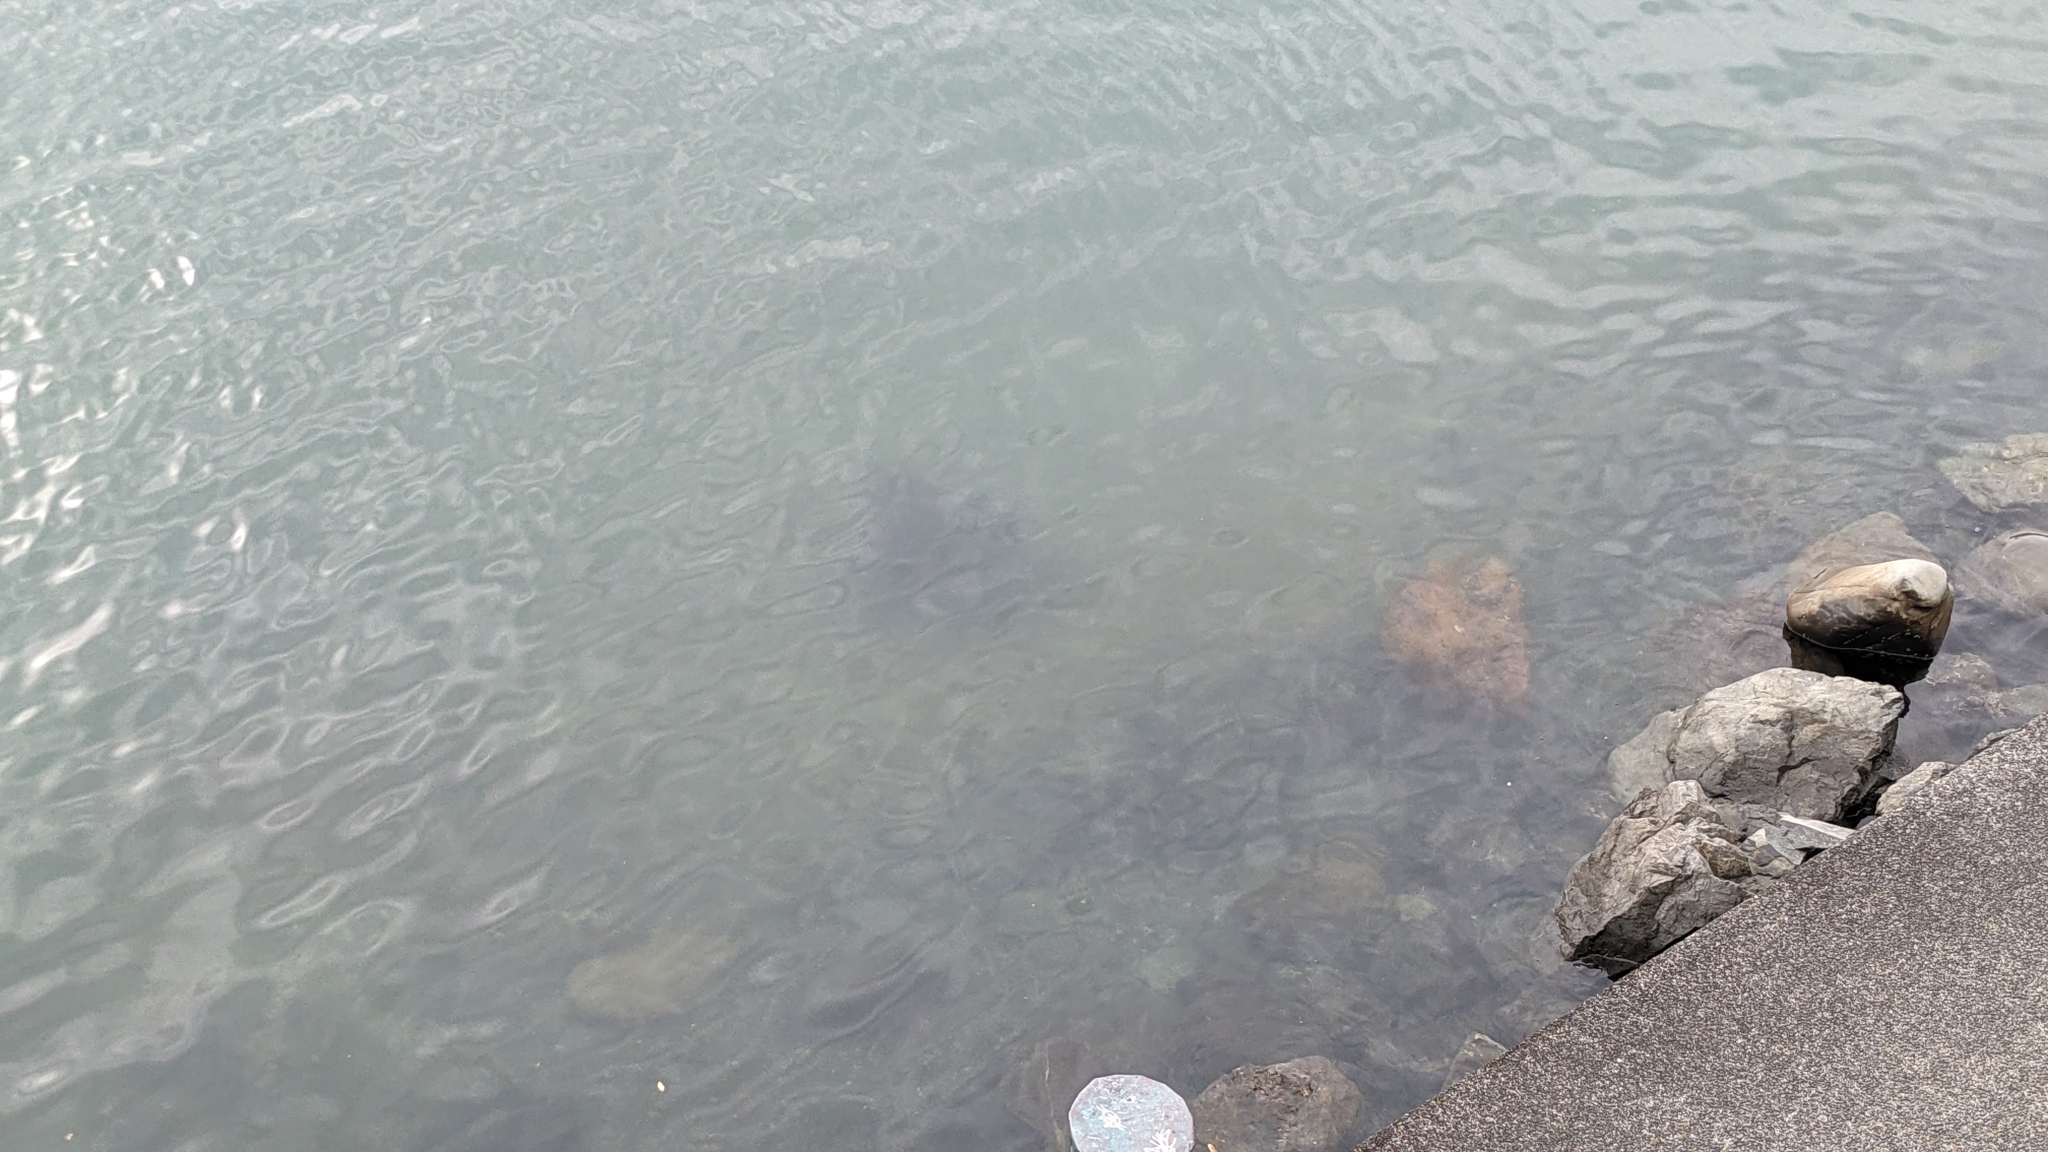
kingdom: Animalia
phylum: Chordata
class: Elasmobranchii
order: Myliobatiformes
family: Myliobatidae
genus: Myliobatis
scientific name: Myliobatis tenuicaudatus
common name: Eagle ray
